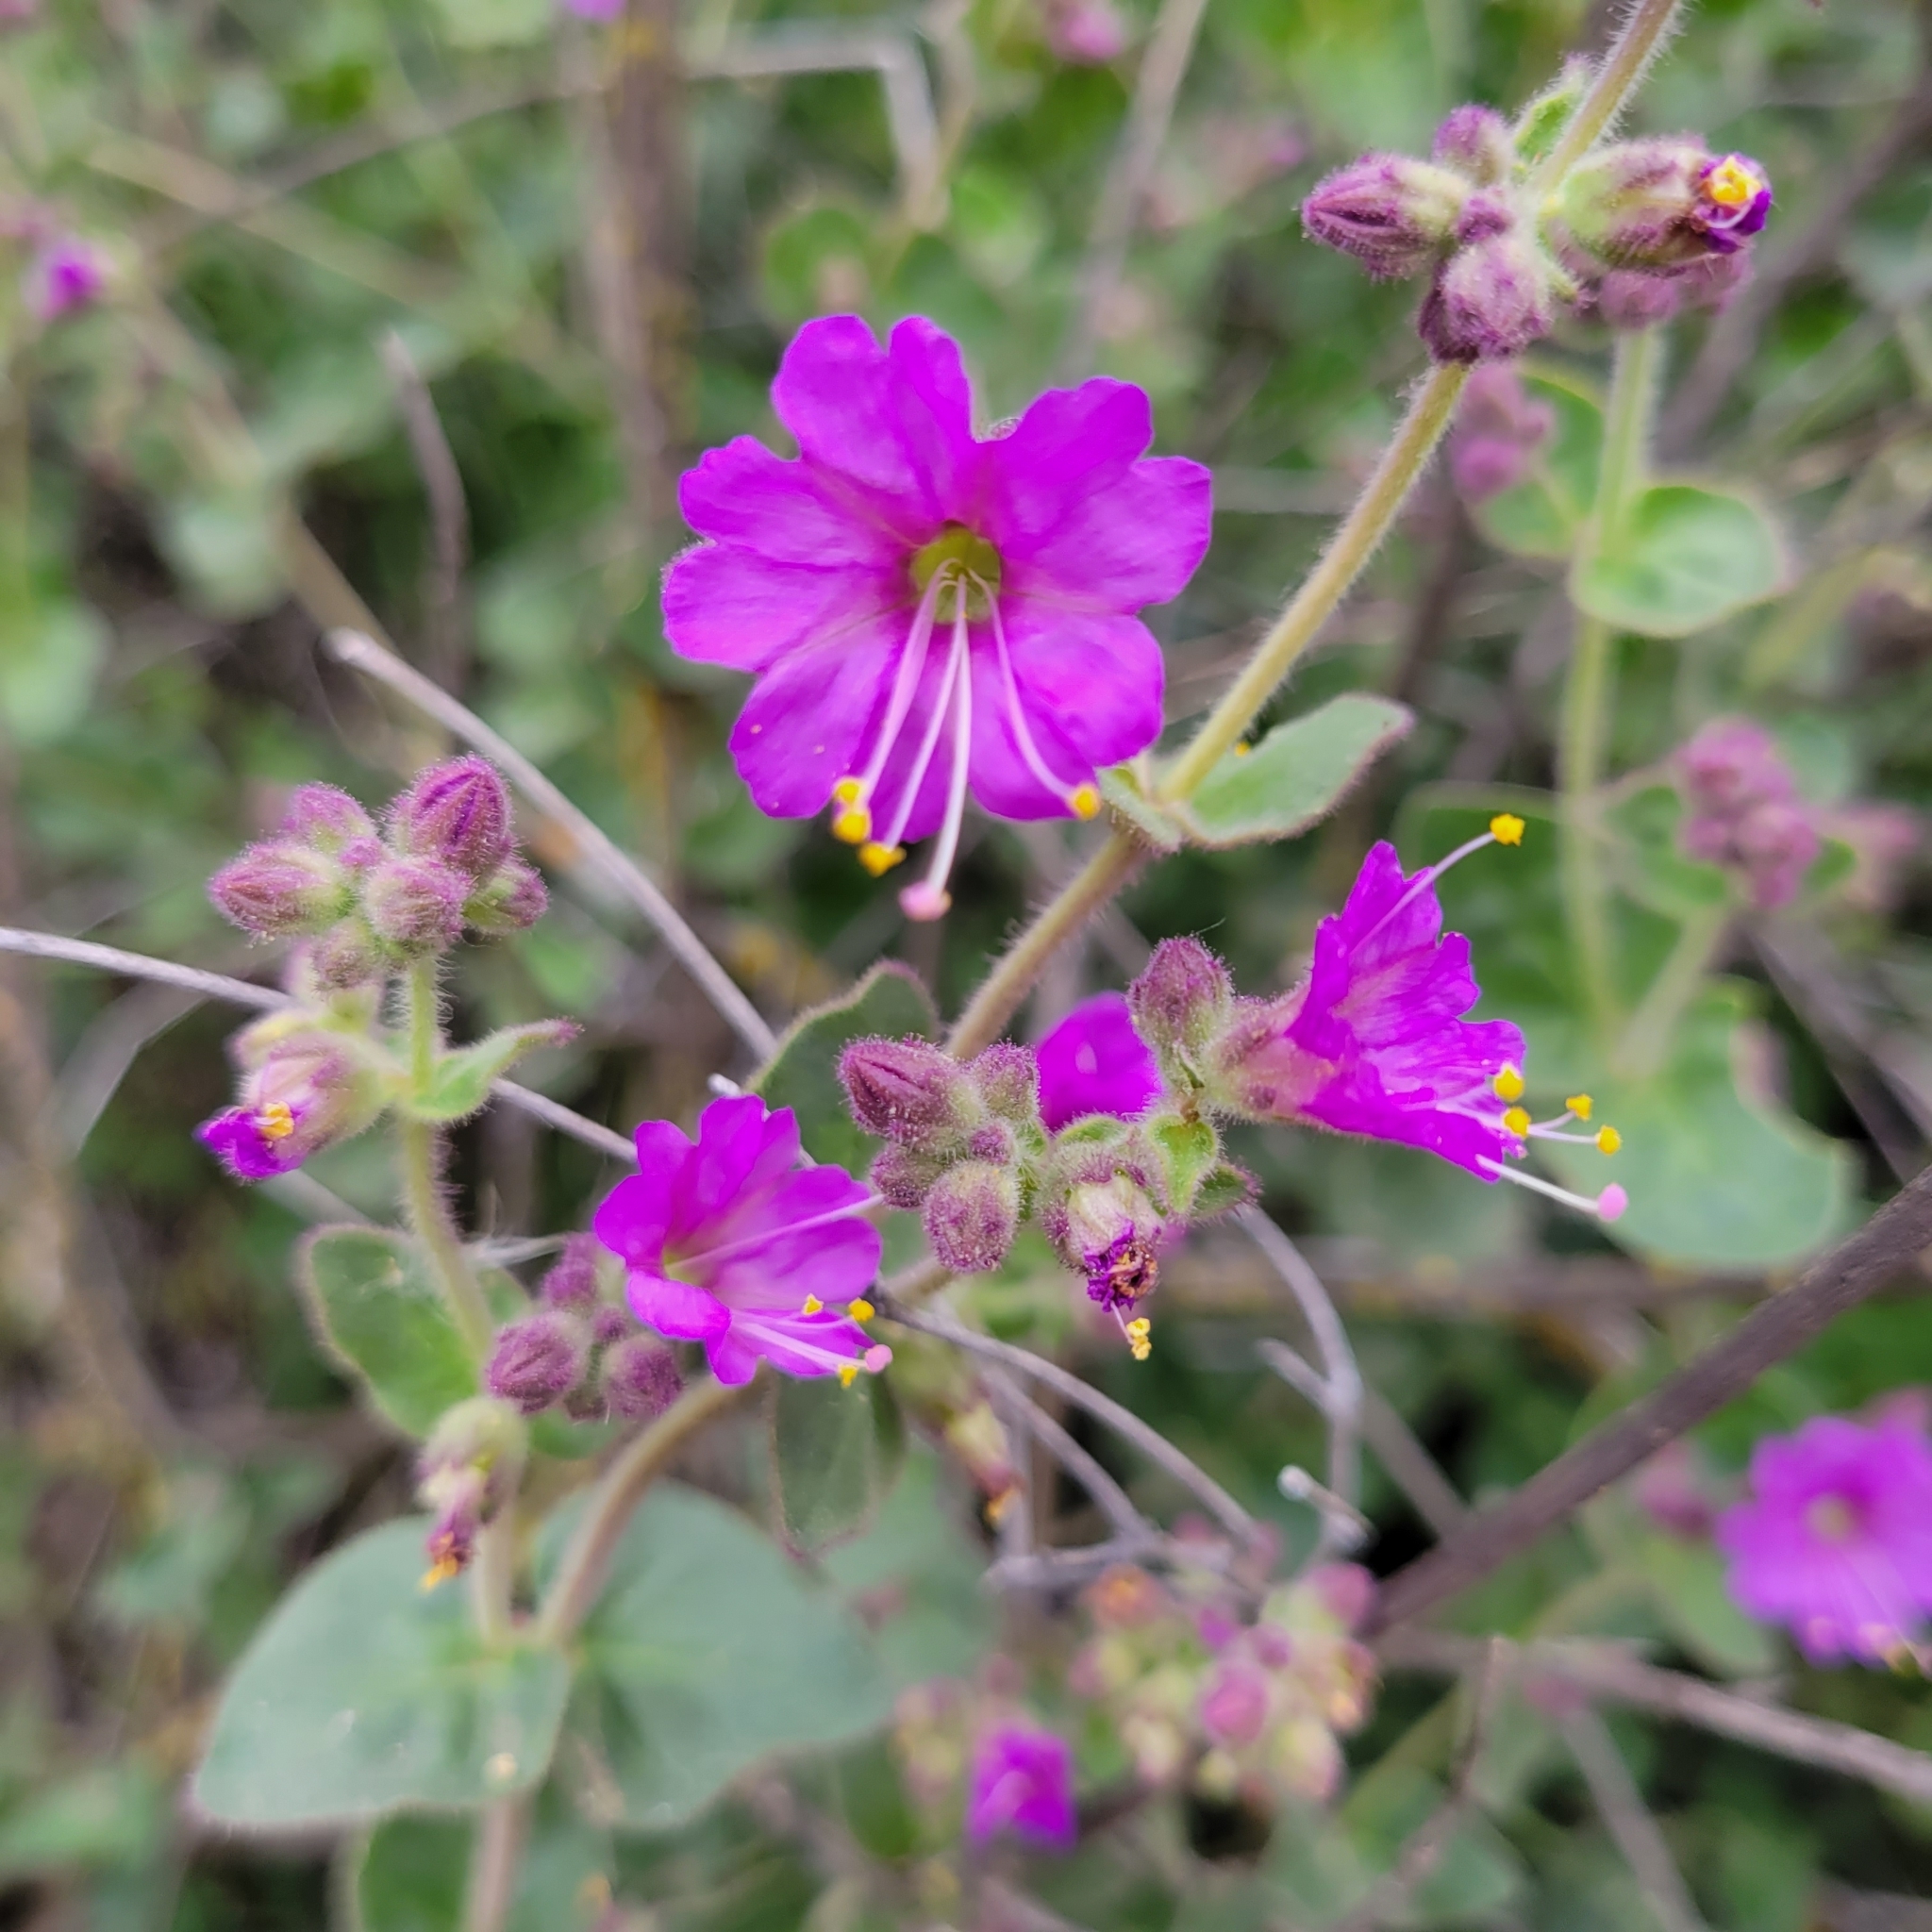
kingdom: Plantae
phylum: Tracheophyta
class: Magnoliopsida
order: Caryophyllales
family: Nyctaginaceae
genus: Mirabilis
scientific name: Mirabilis laevis
